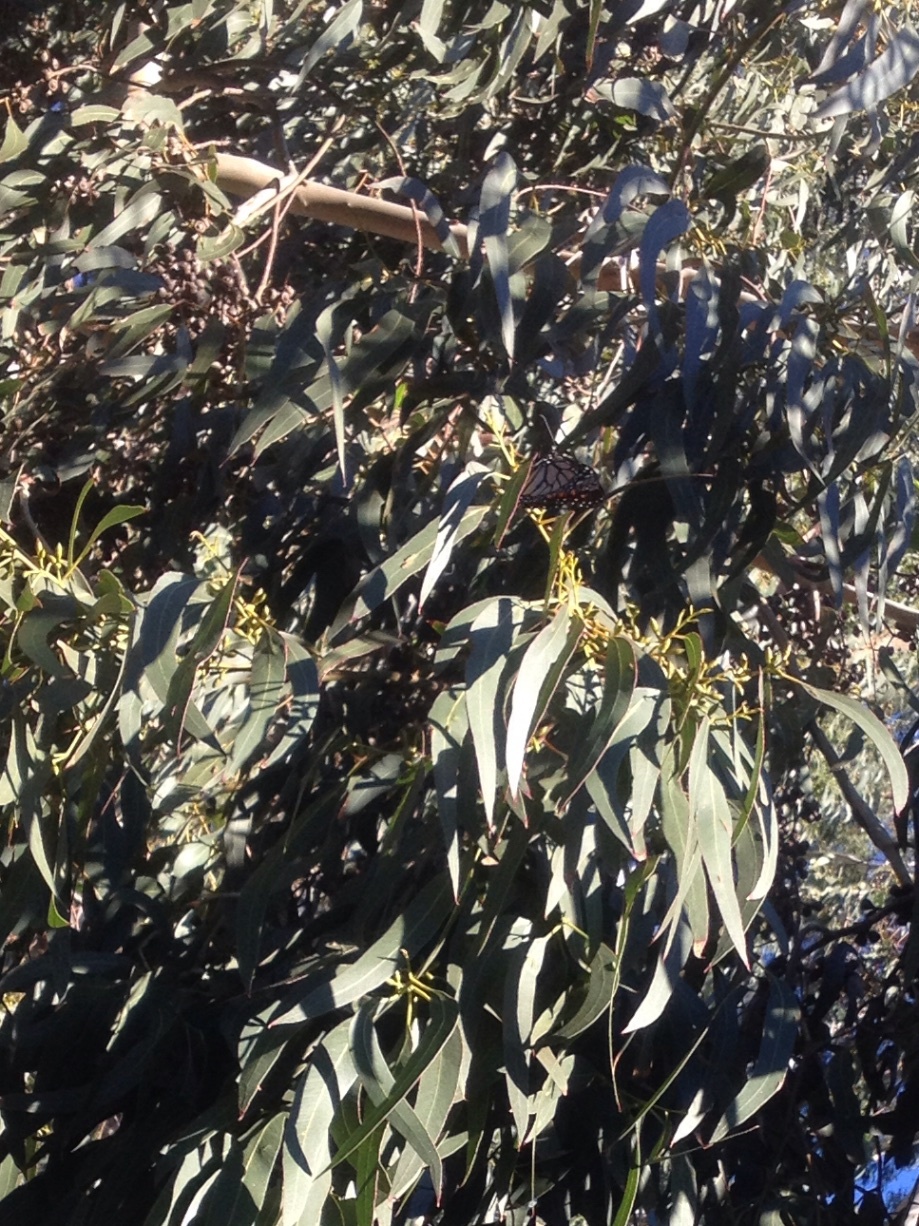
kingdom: Animalia
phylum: Arthropoda
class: Insecta
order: Lepidoptera
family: Nymphalidae
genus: Danaus
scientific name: Danaus plexippus
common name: Monarch
